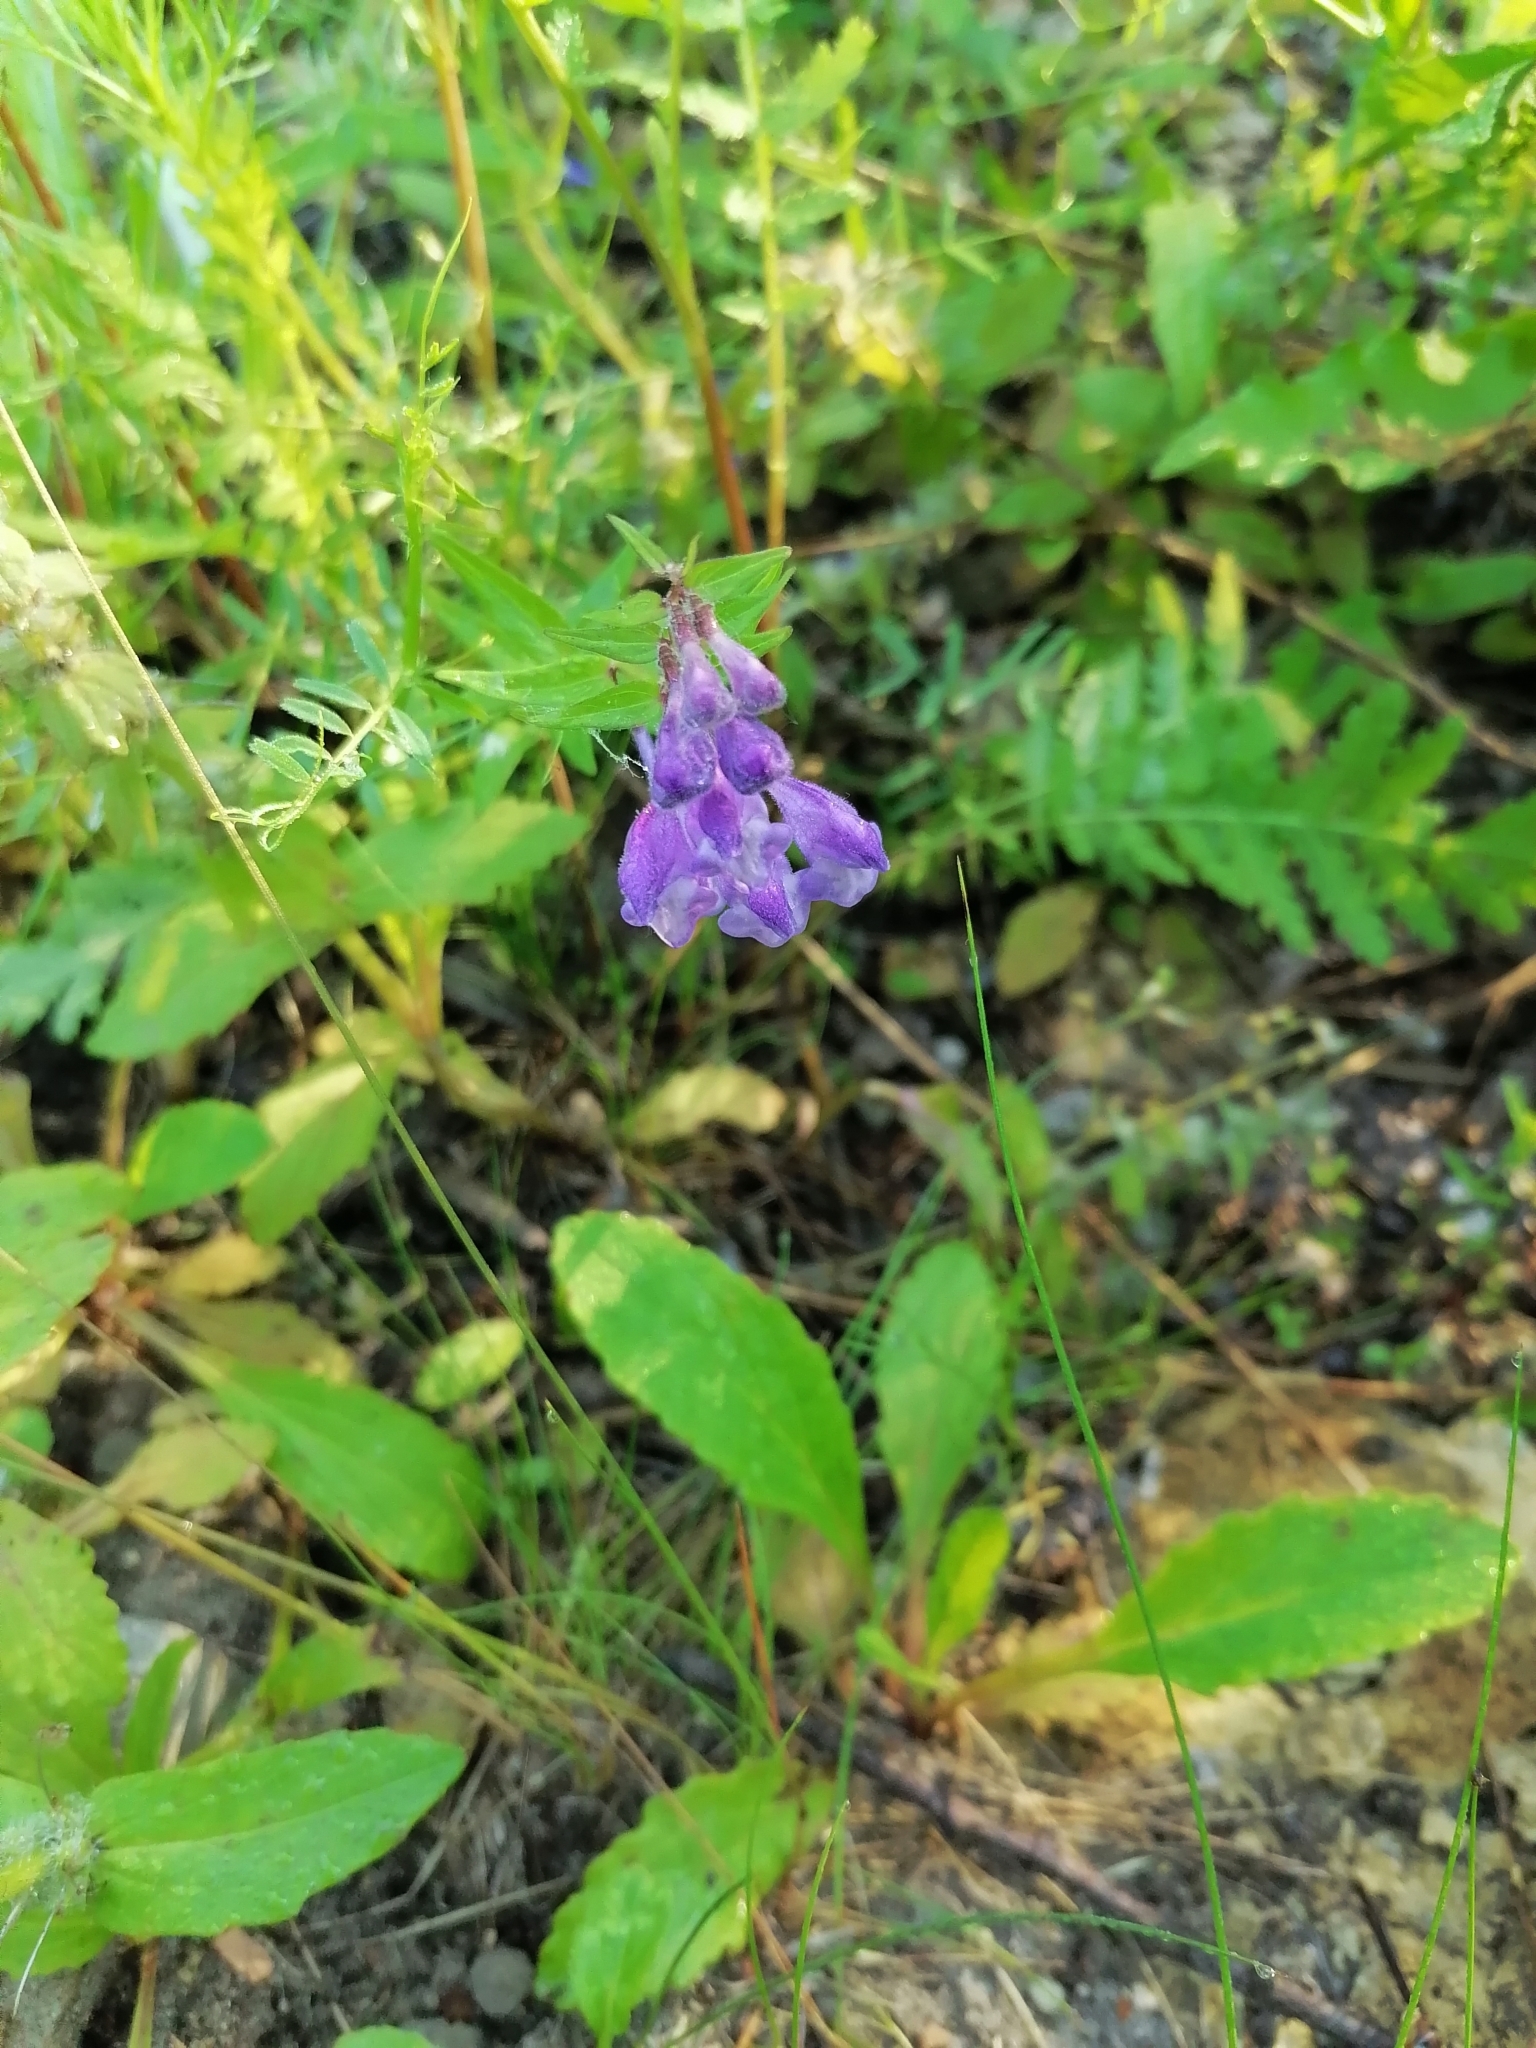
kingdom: Plantae
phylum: Tracheophyta
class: Magnoliopsida
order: Lamiales
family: Lamiaceae
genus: Scutellaria
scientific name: Scutellaria hastifolia
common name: Norfolk skullcap
